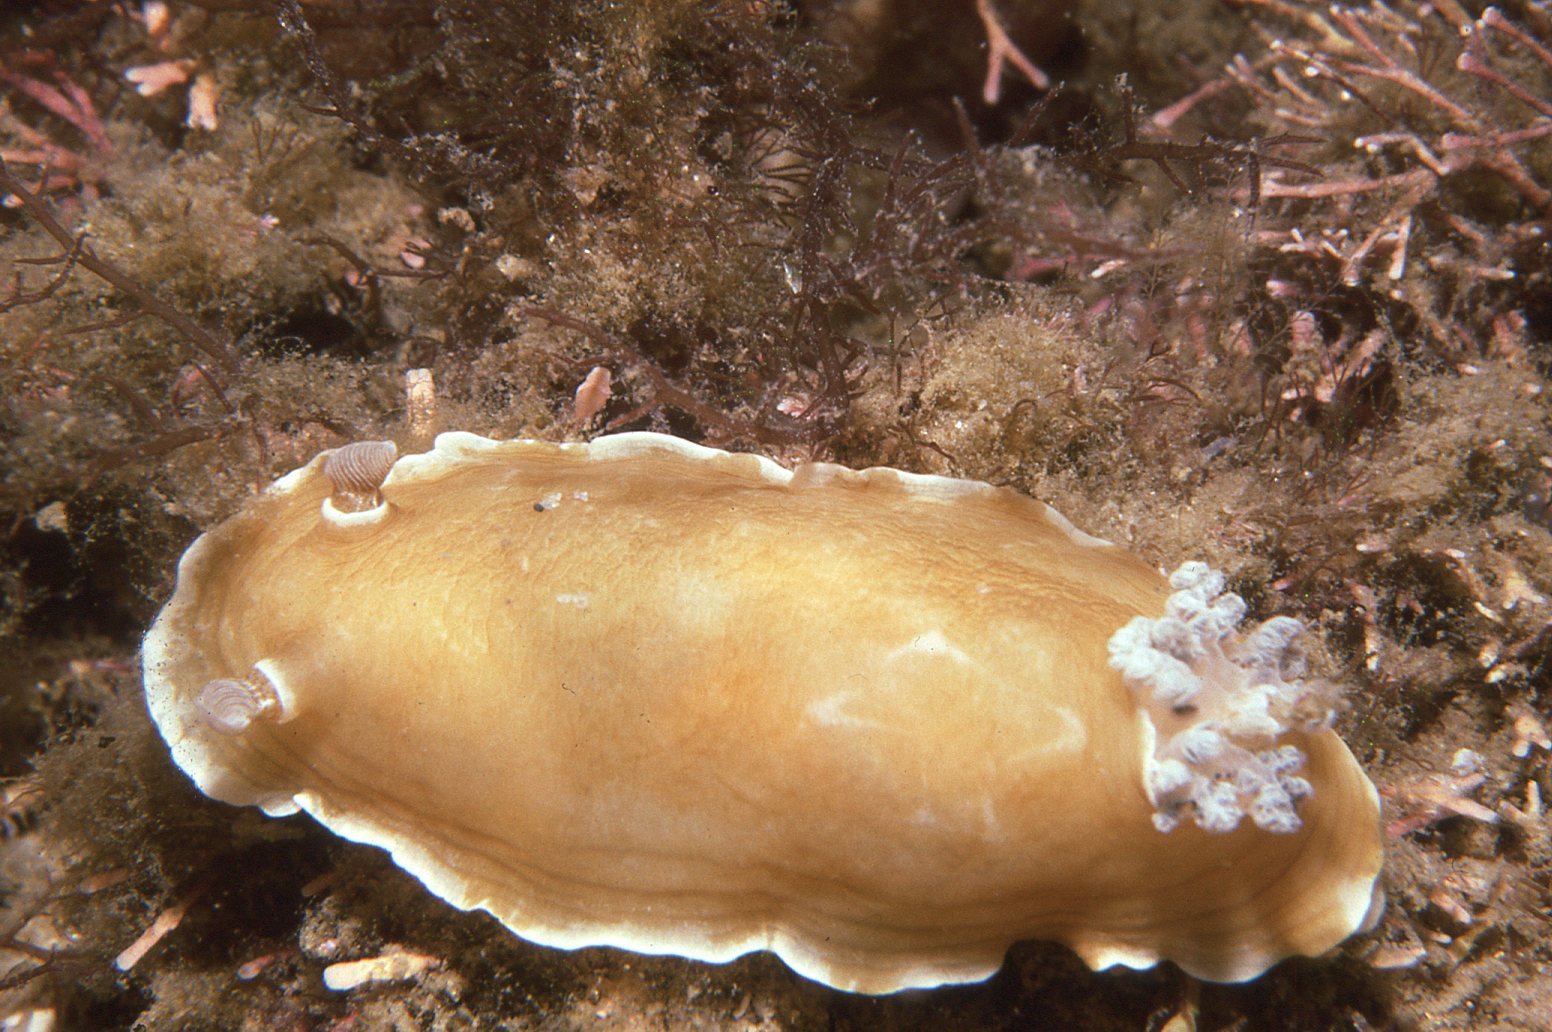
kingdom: Animalia
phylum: Mollusca
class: Gastropoda
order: Nudibranchia
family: Dorididae
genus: Aphelodoris
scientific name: Aphelodoris varia
